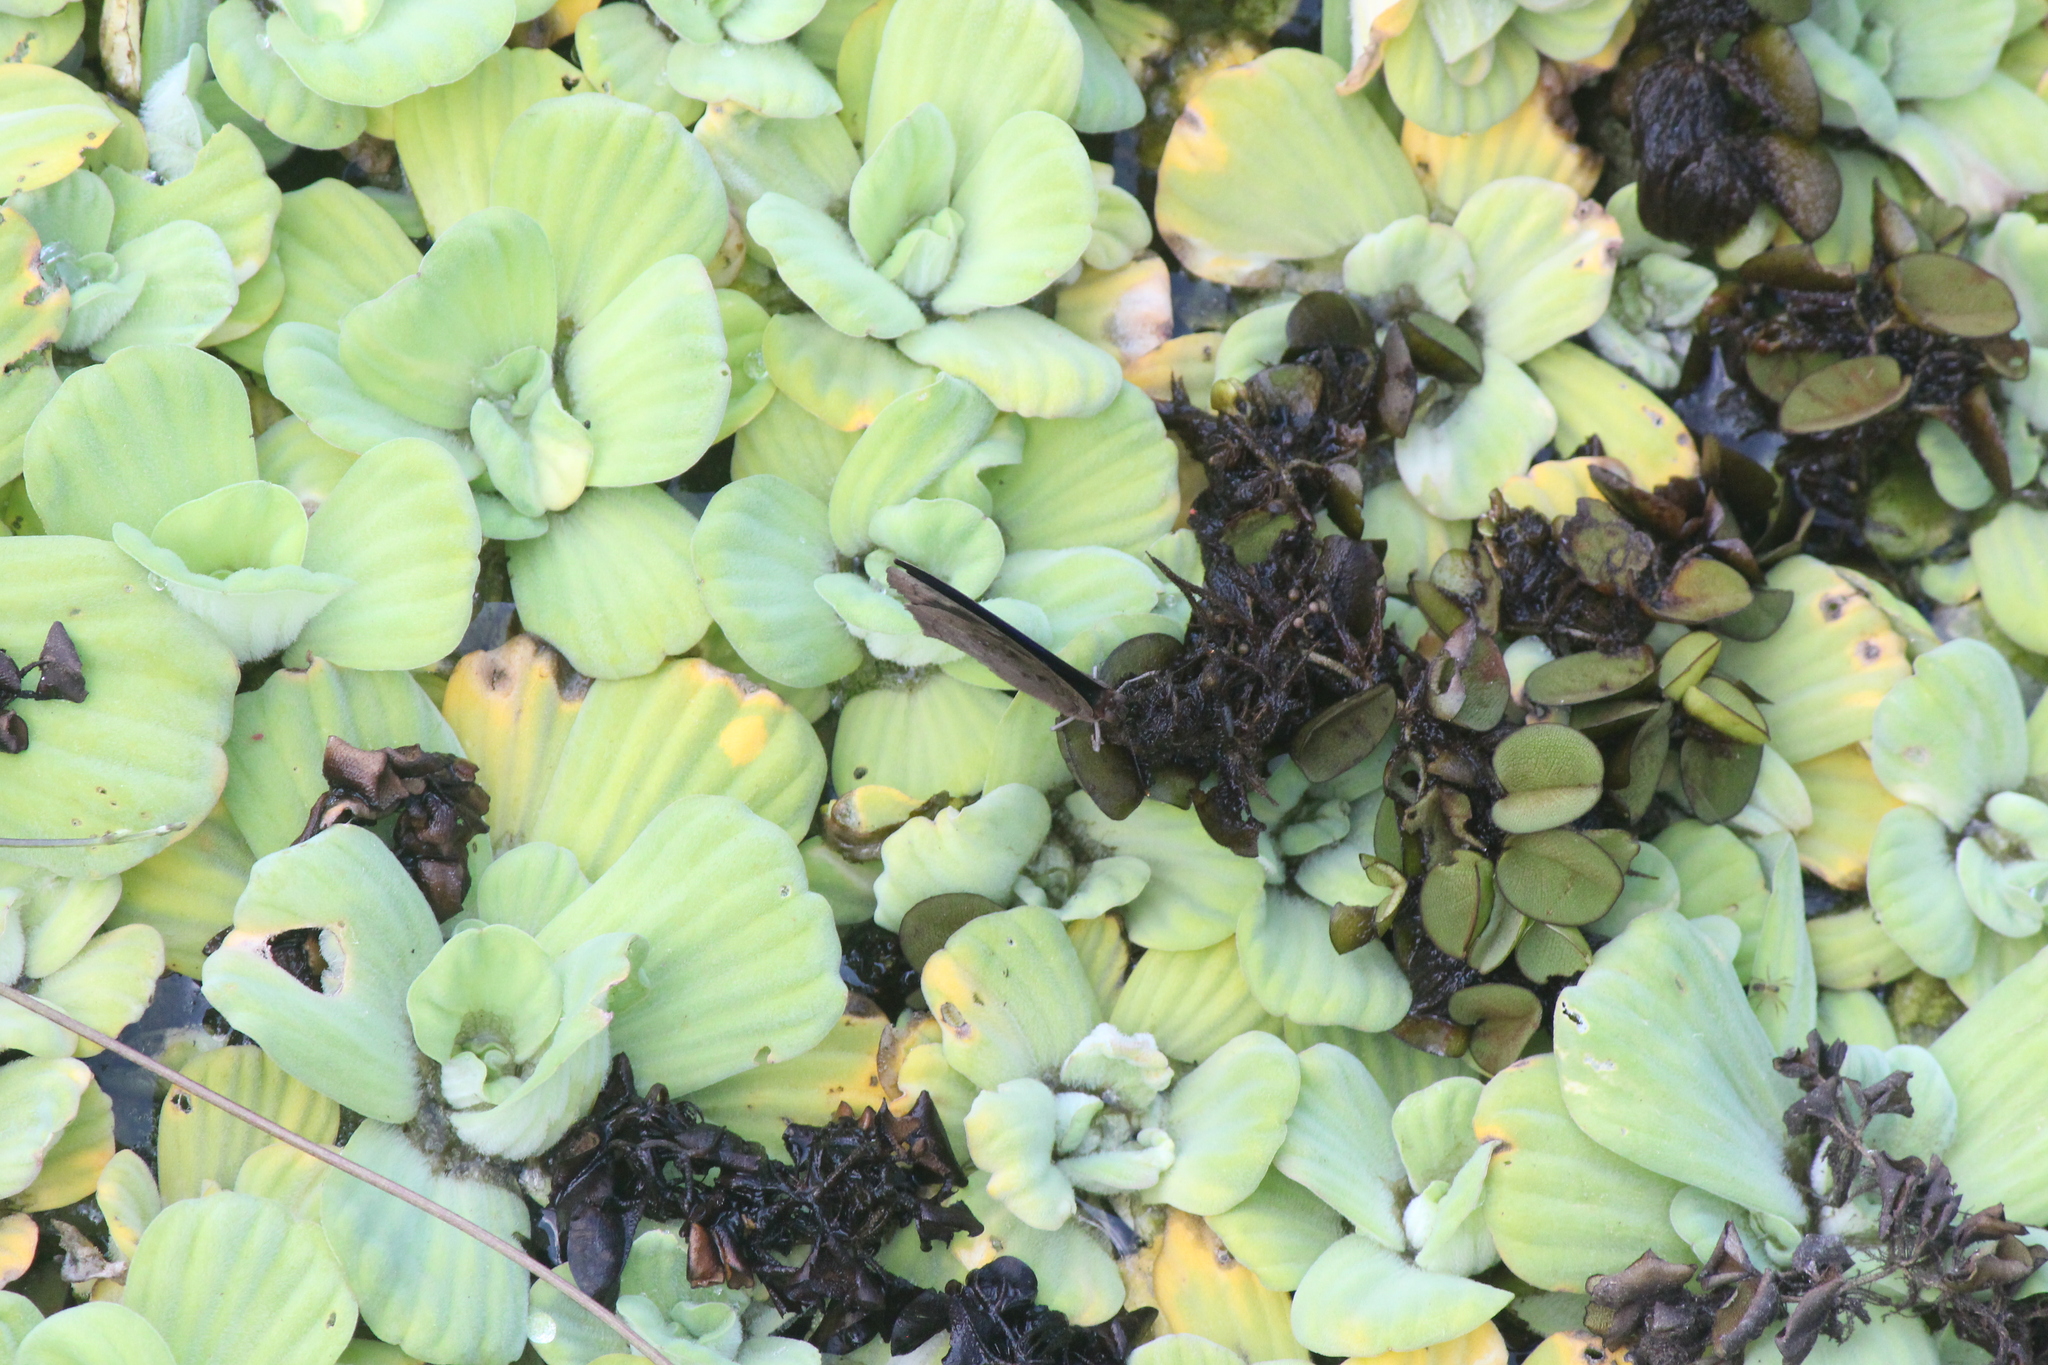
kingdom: Animalia
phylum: Arthropoda
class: Insecta
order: Lepidoptera
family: Nymphalidae
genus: Eunica
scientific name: Eunica eurota
